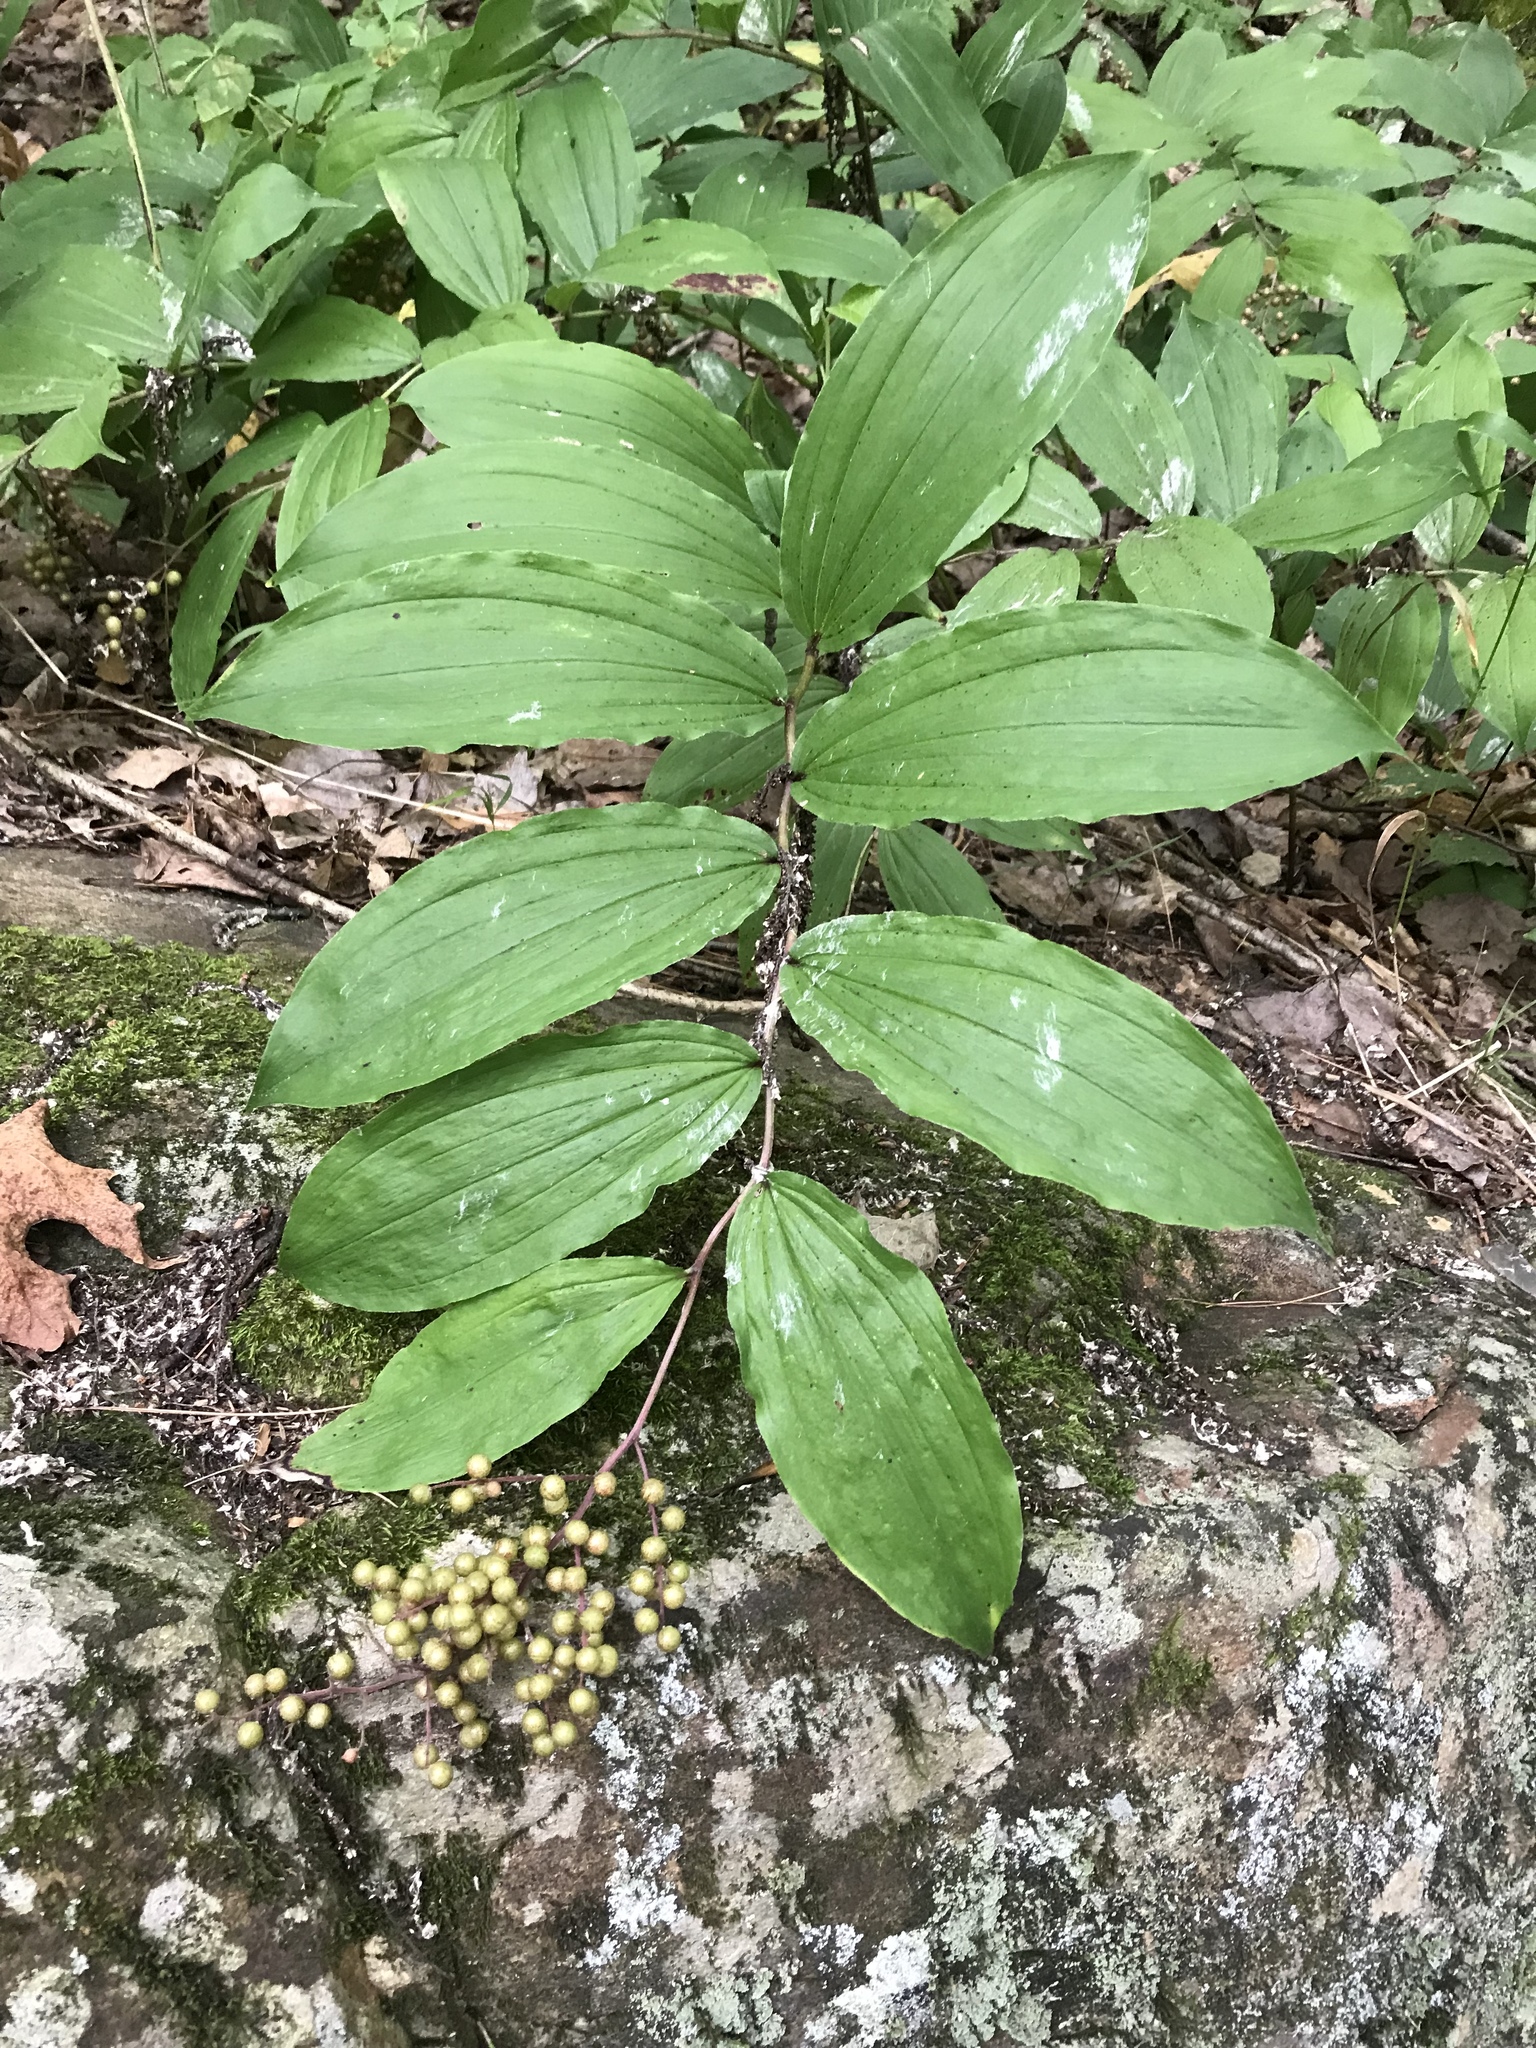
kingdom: Plantae
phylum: Tracheophyta
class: Liliopsida
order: Asparagales
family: Asparagaceae
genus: Maianthemum
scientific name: Maianthemum racemosum
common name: False spikenard
